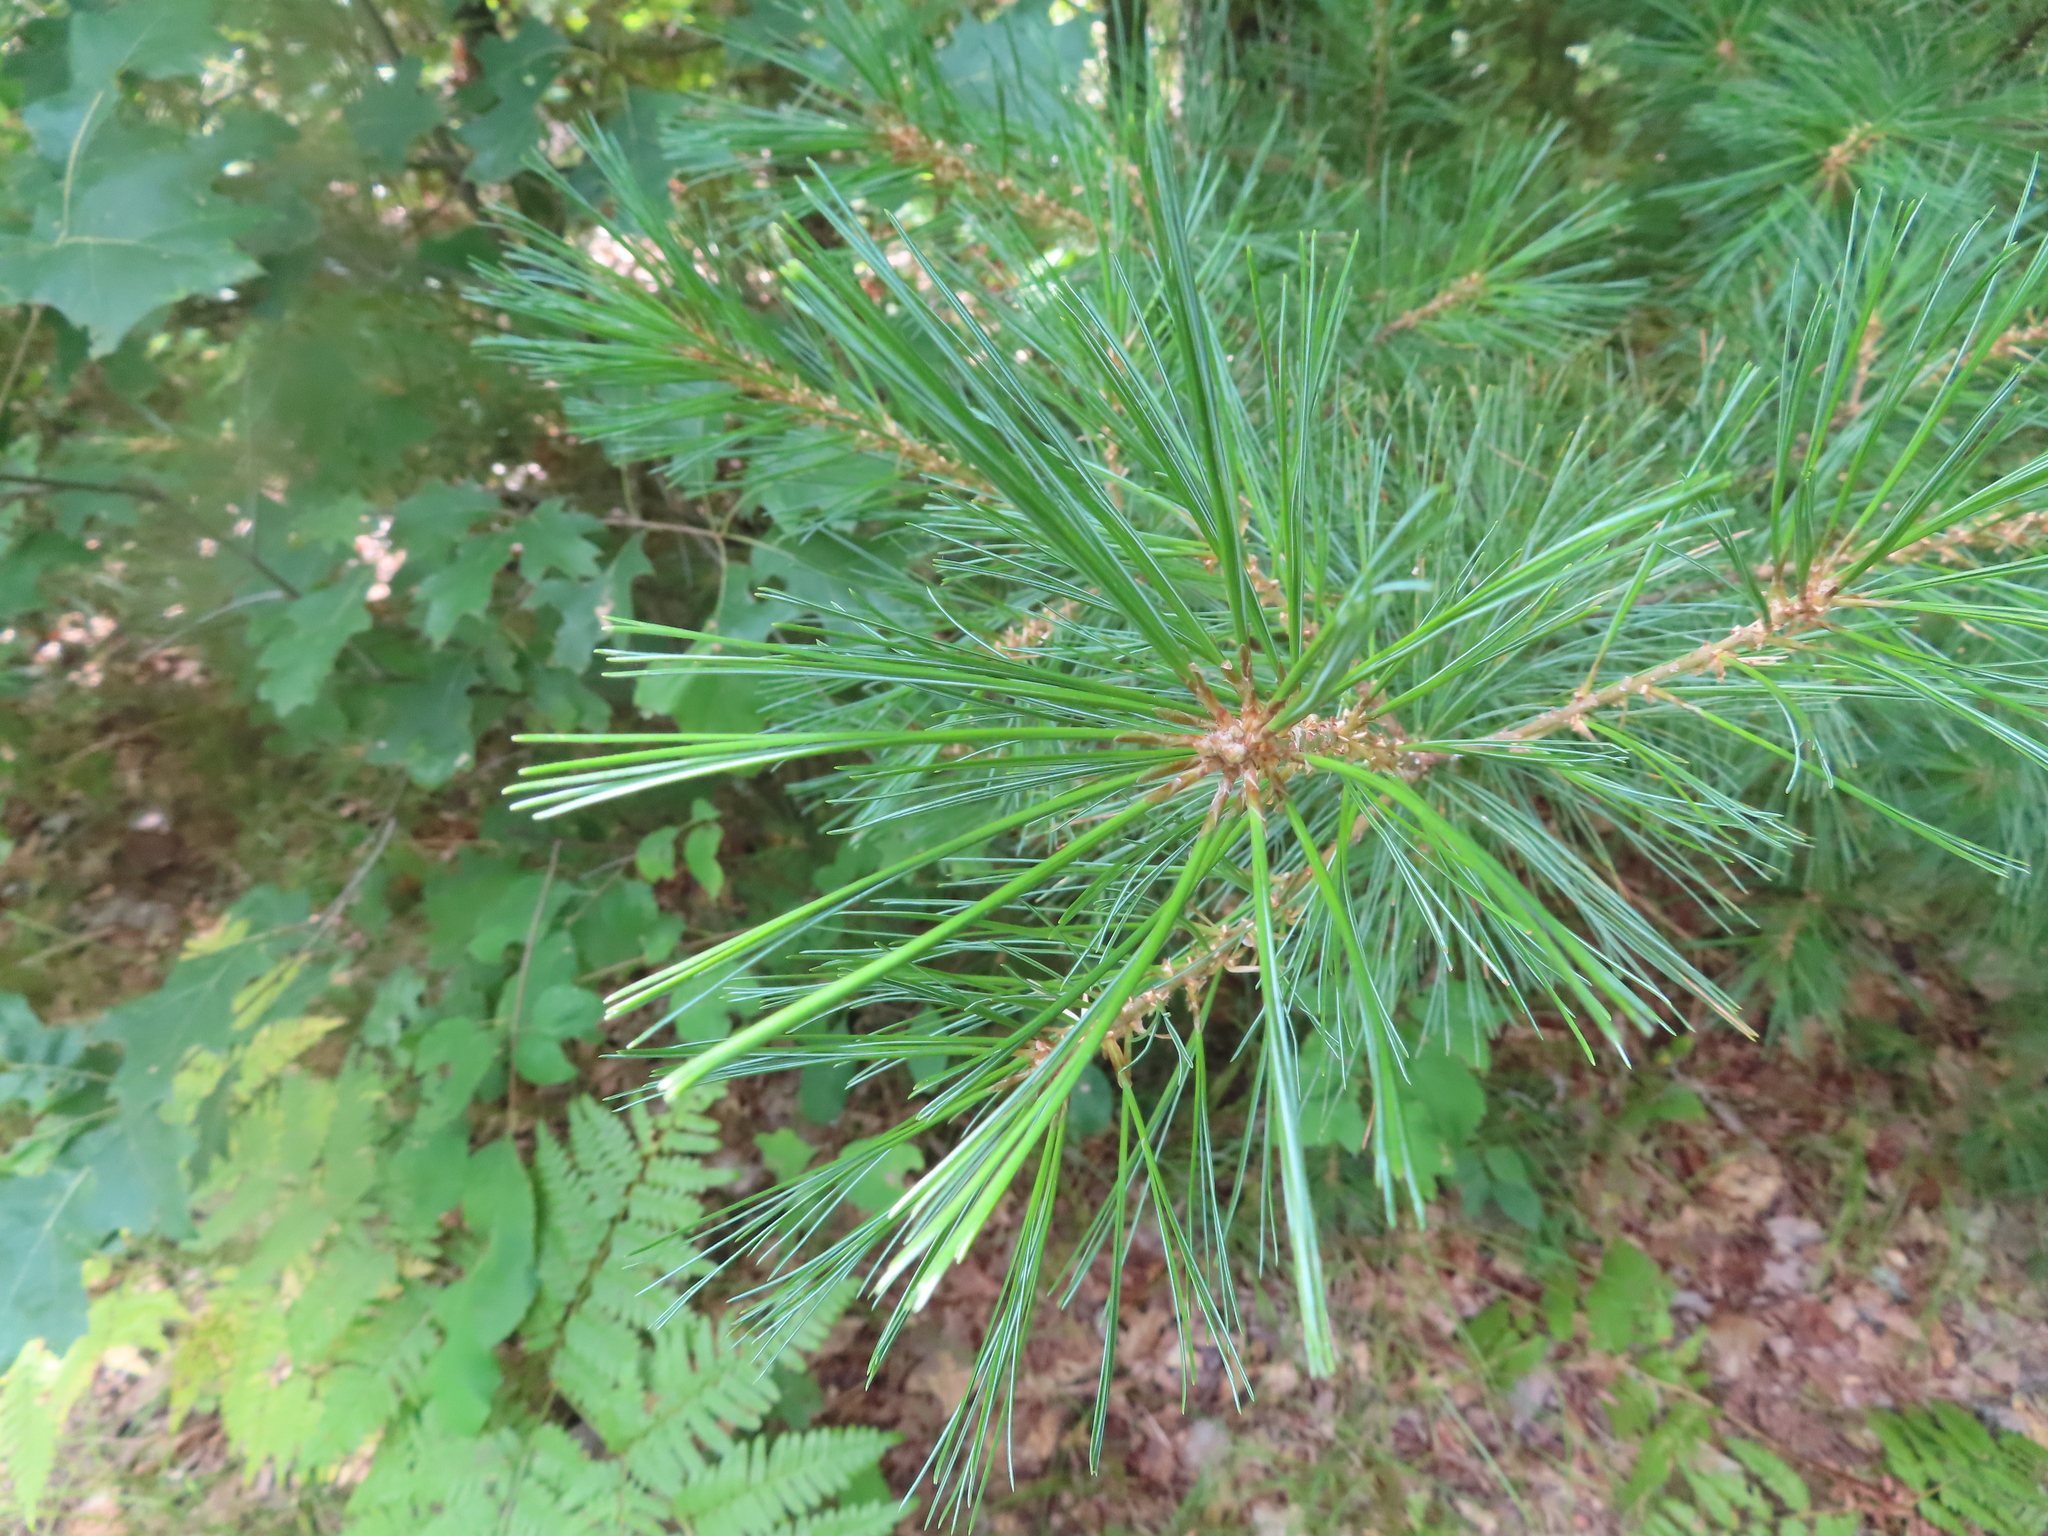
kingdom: Plantae
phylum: Tracheophyta
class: Pinopsida
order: Pinales
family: Pinaceae
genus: Pinus
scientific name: Pinus strobus
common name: Weymouth pine
